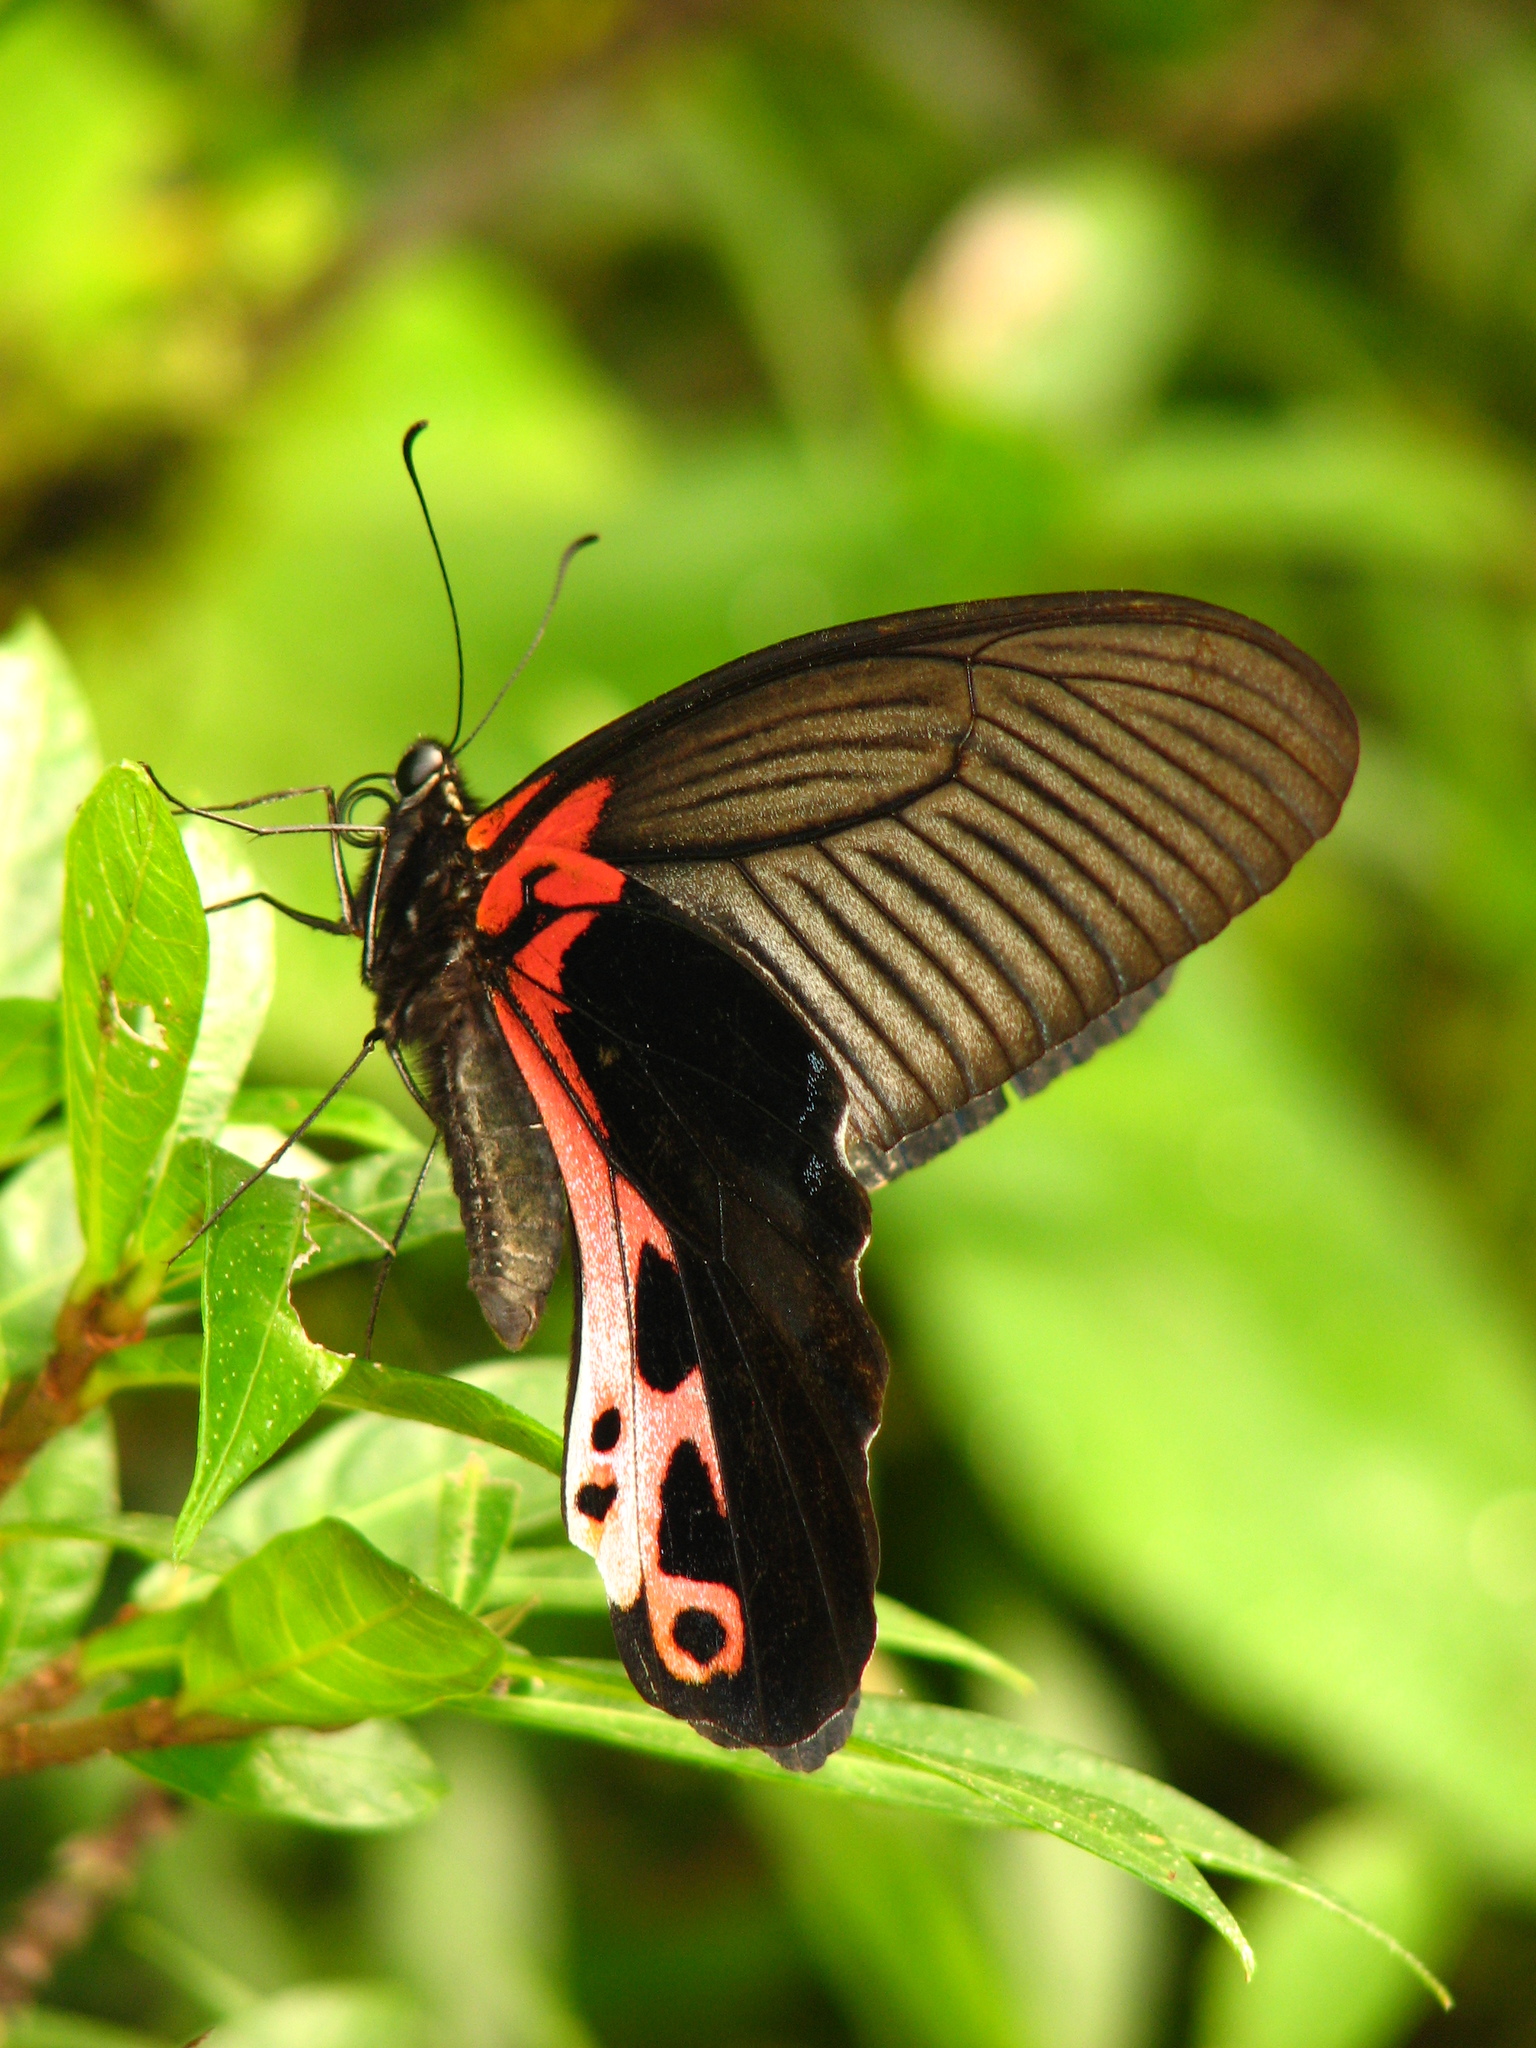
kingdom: Animalia
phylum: Arthropoda
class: Insecta
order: Lepidoptera
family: Papilionidae
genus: Papilio
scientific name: Papilio alcmenor
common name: Redbreast
